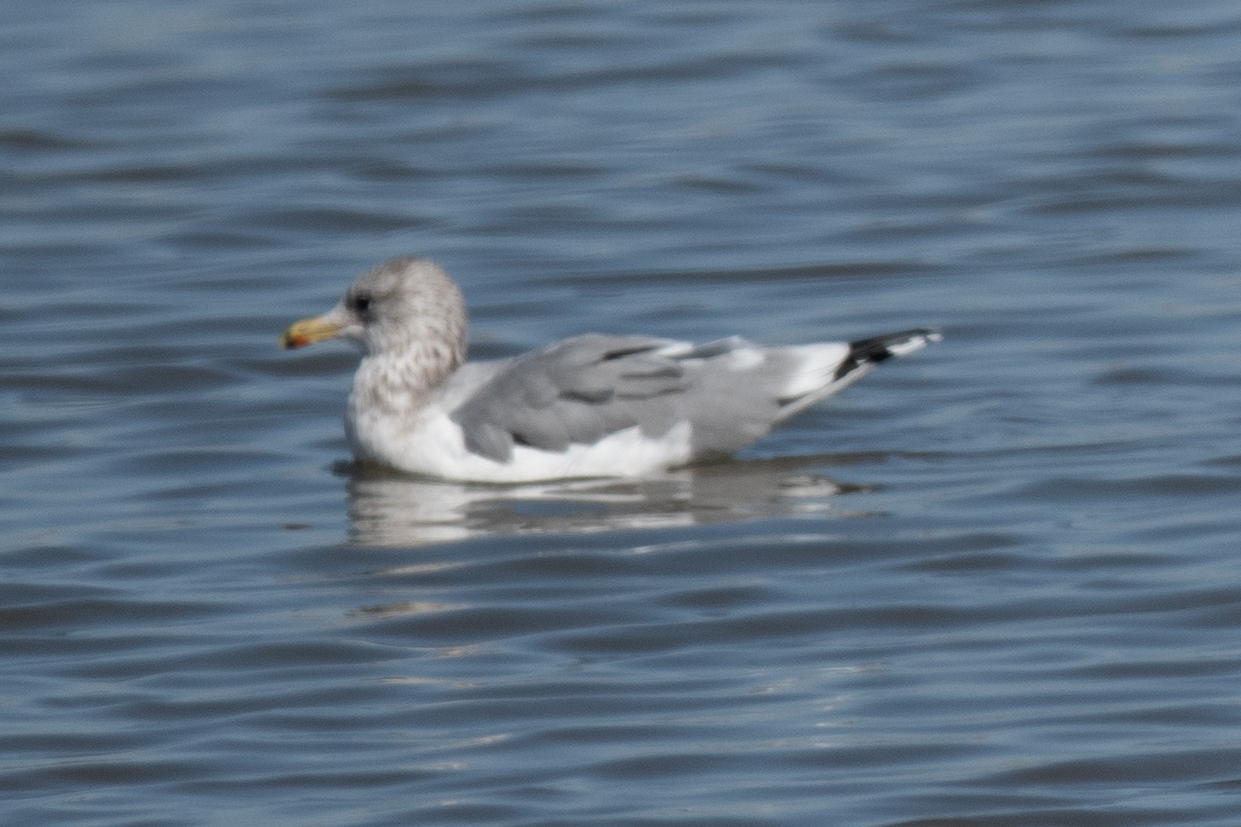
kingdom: Animalia
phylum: Chordata
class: Aves
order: Charadriiformes
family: Laridae
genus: Larus
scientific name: Larus californicus
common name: California gull
